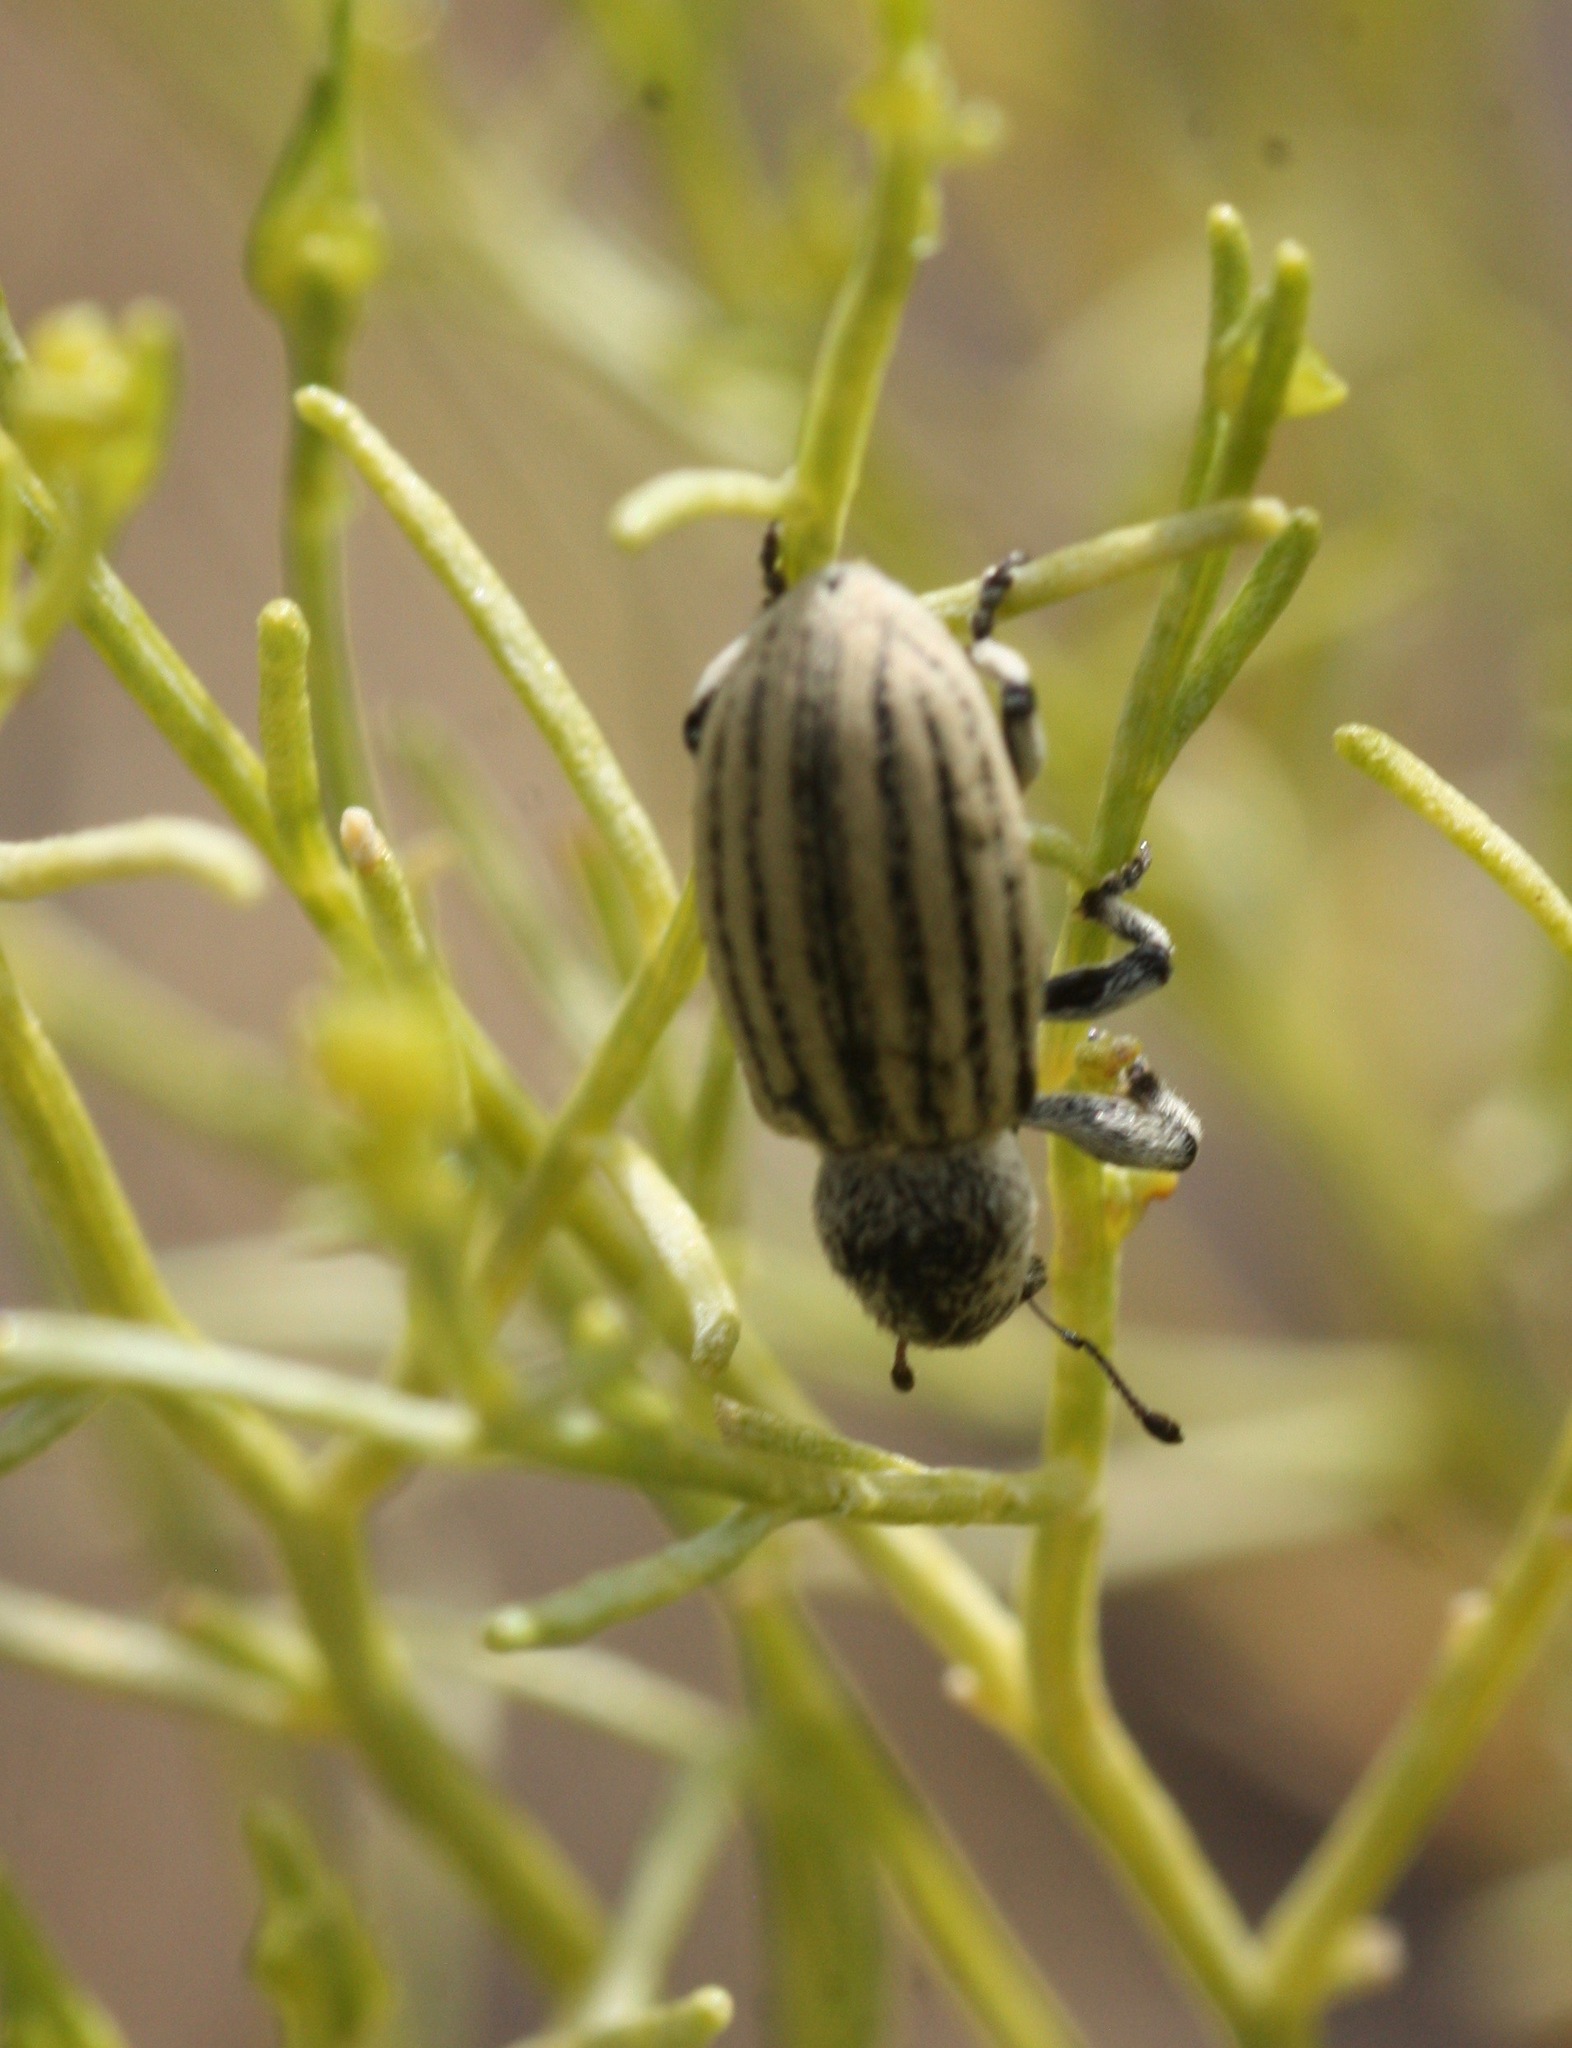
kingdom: Animalia
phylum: Arthropoda
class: Insecta
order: Coleoptera
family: Curculionidae
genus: Myrmex
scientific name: Myrmex lineatus
